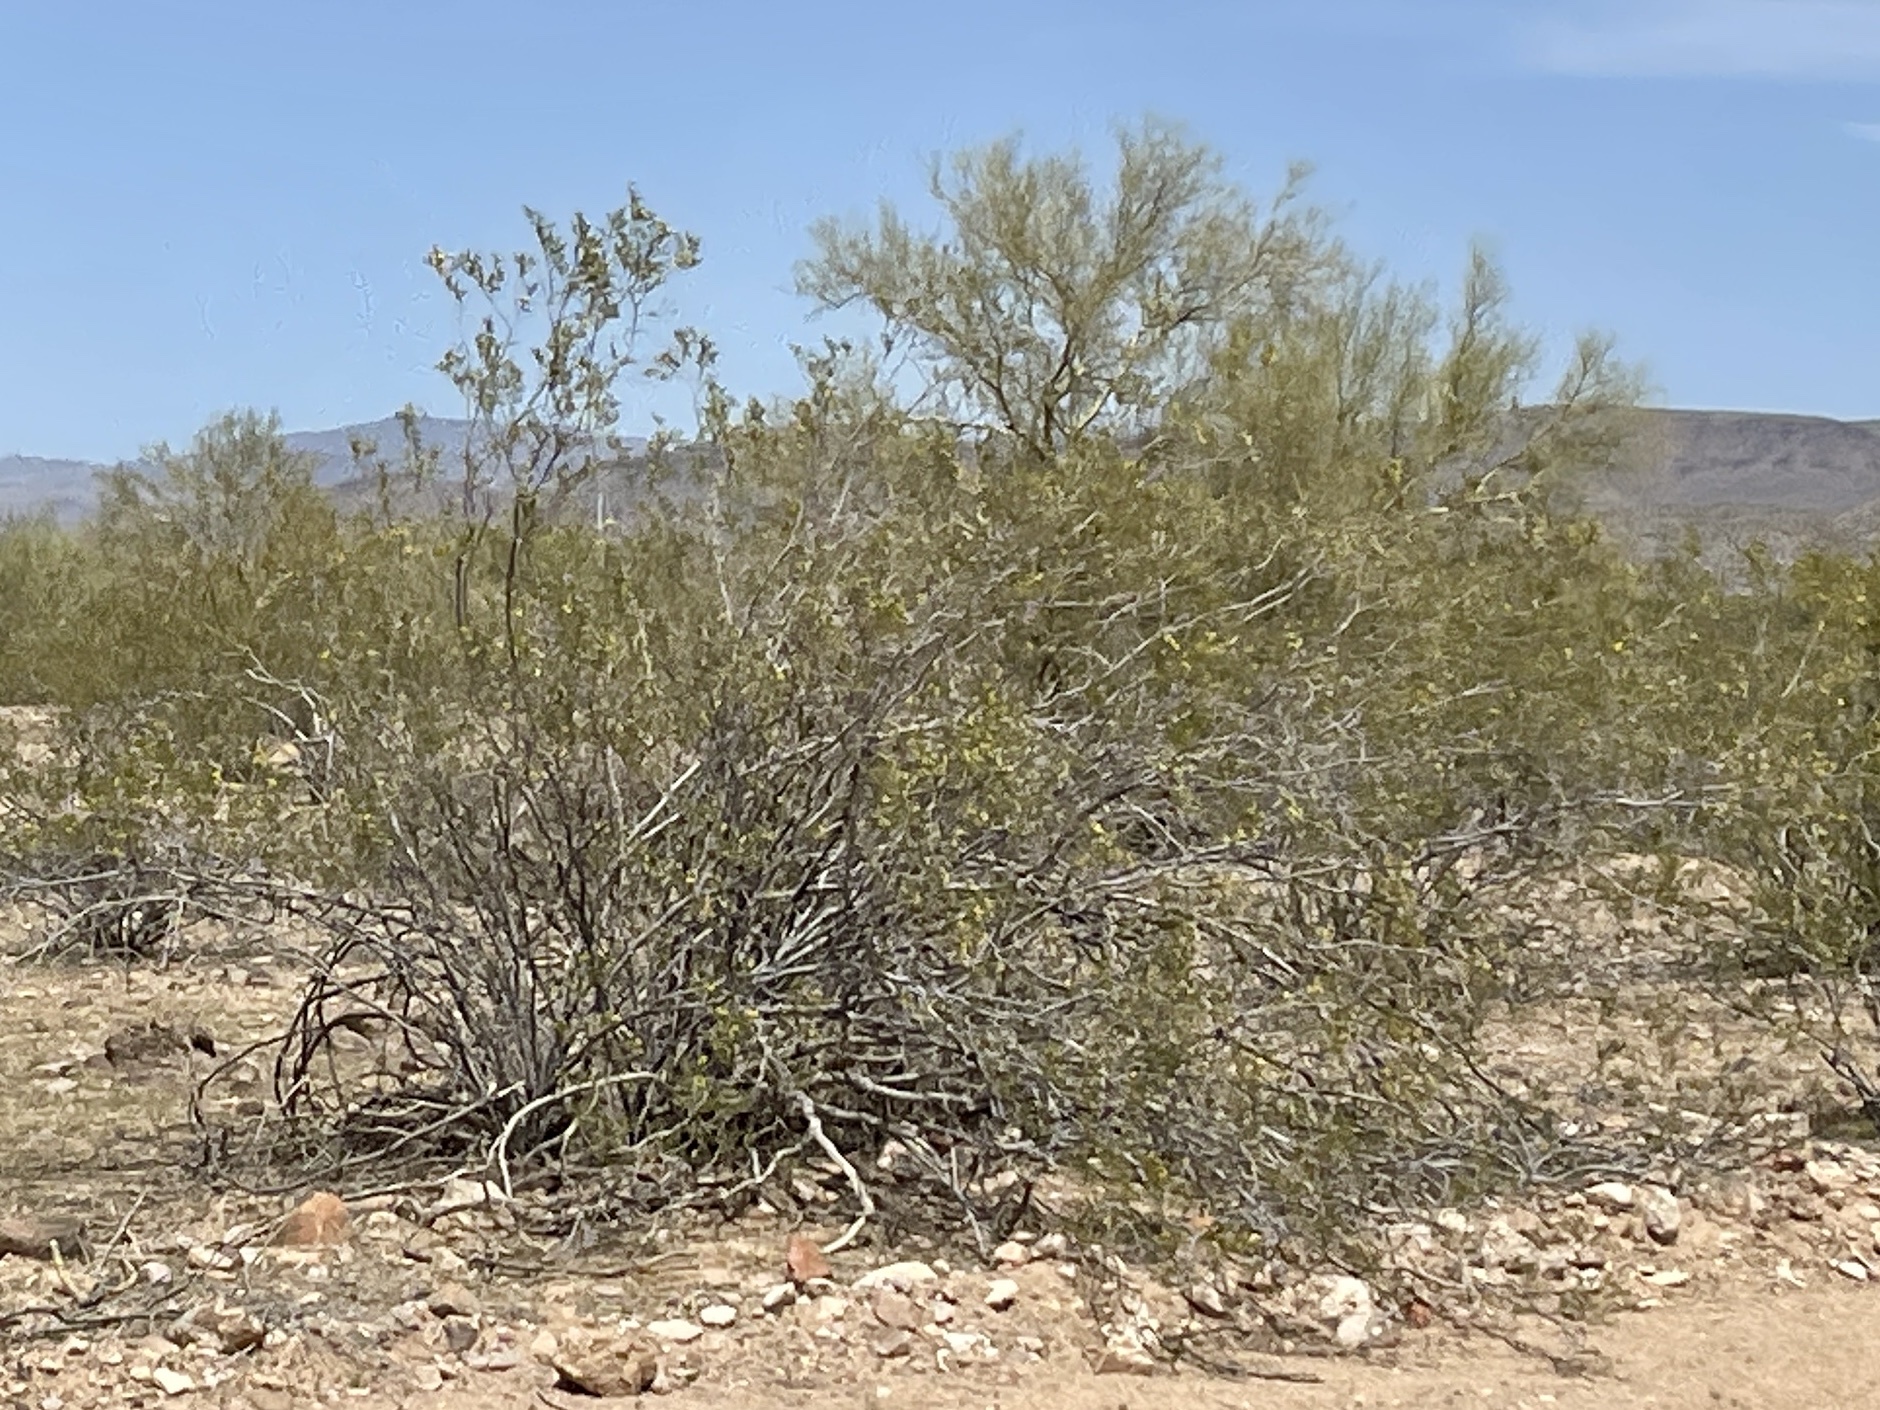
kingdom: Plantae
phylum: Tracheophyta
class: Magnoliopsida
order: Zygophyllales
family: Zygophyllaceae
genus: Larrea
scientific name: Larrea tridentata
